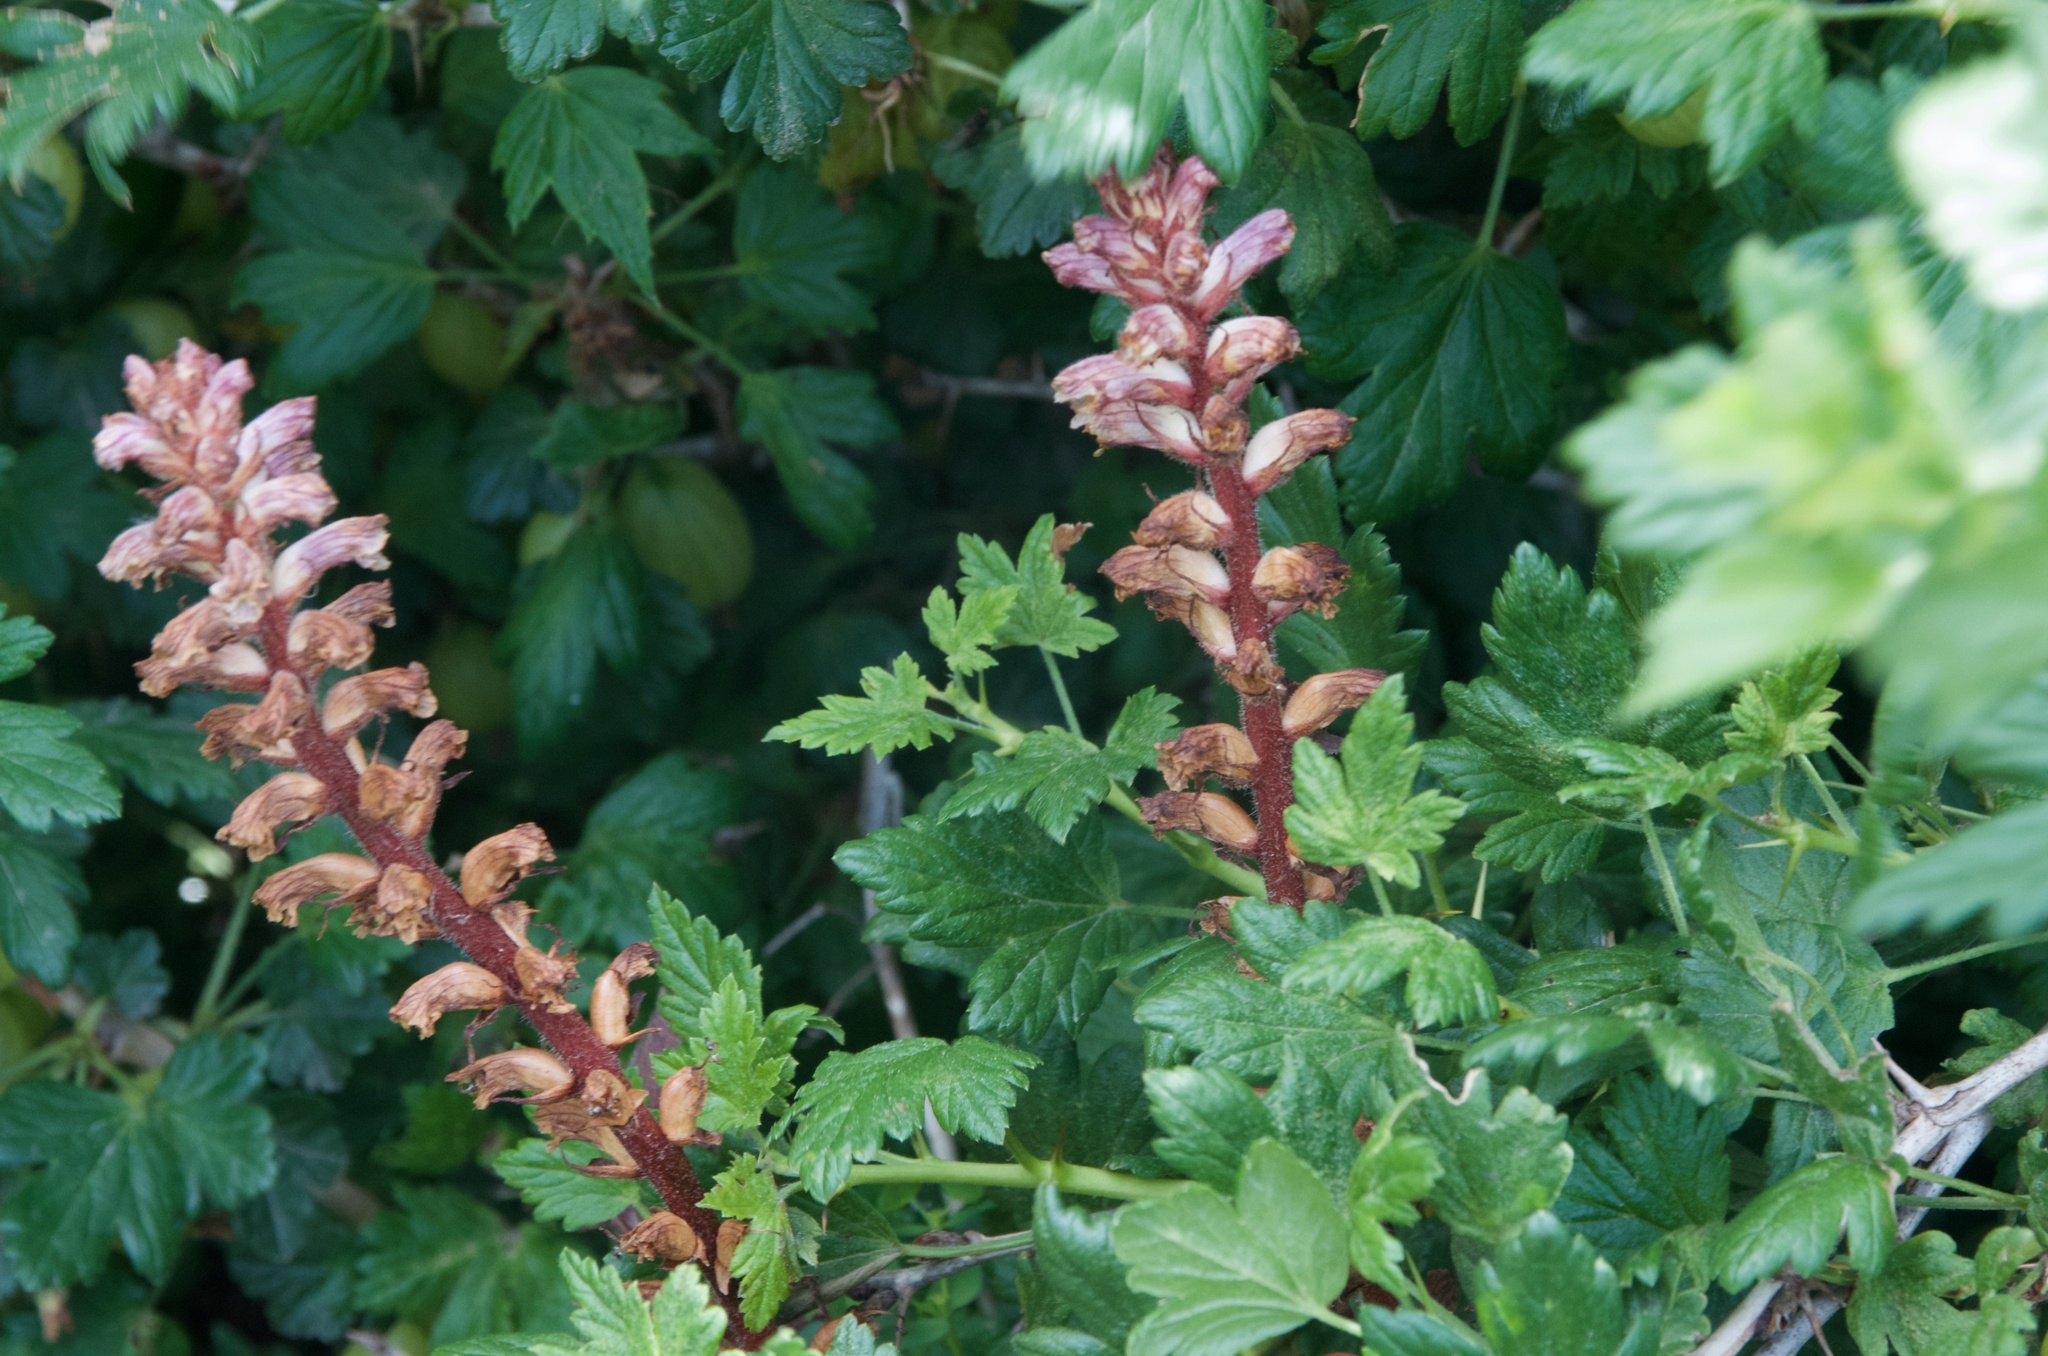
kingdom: Plantae
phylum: Tracheophyta
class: Magnoliopsida
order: Lamiales
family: Orobanchaceae
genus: Orobanche
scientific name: Orobanche minor
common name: Common broomrape
